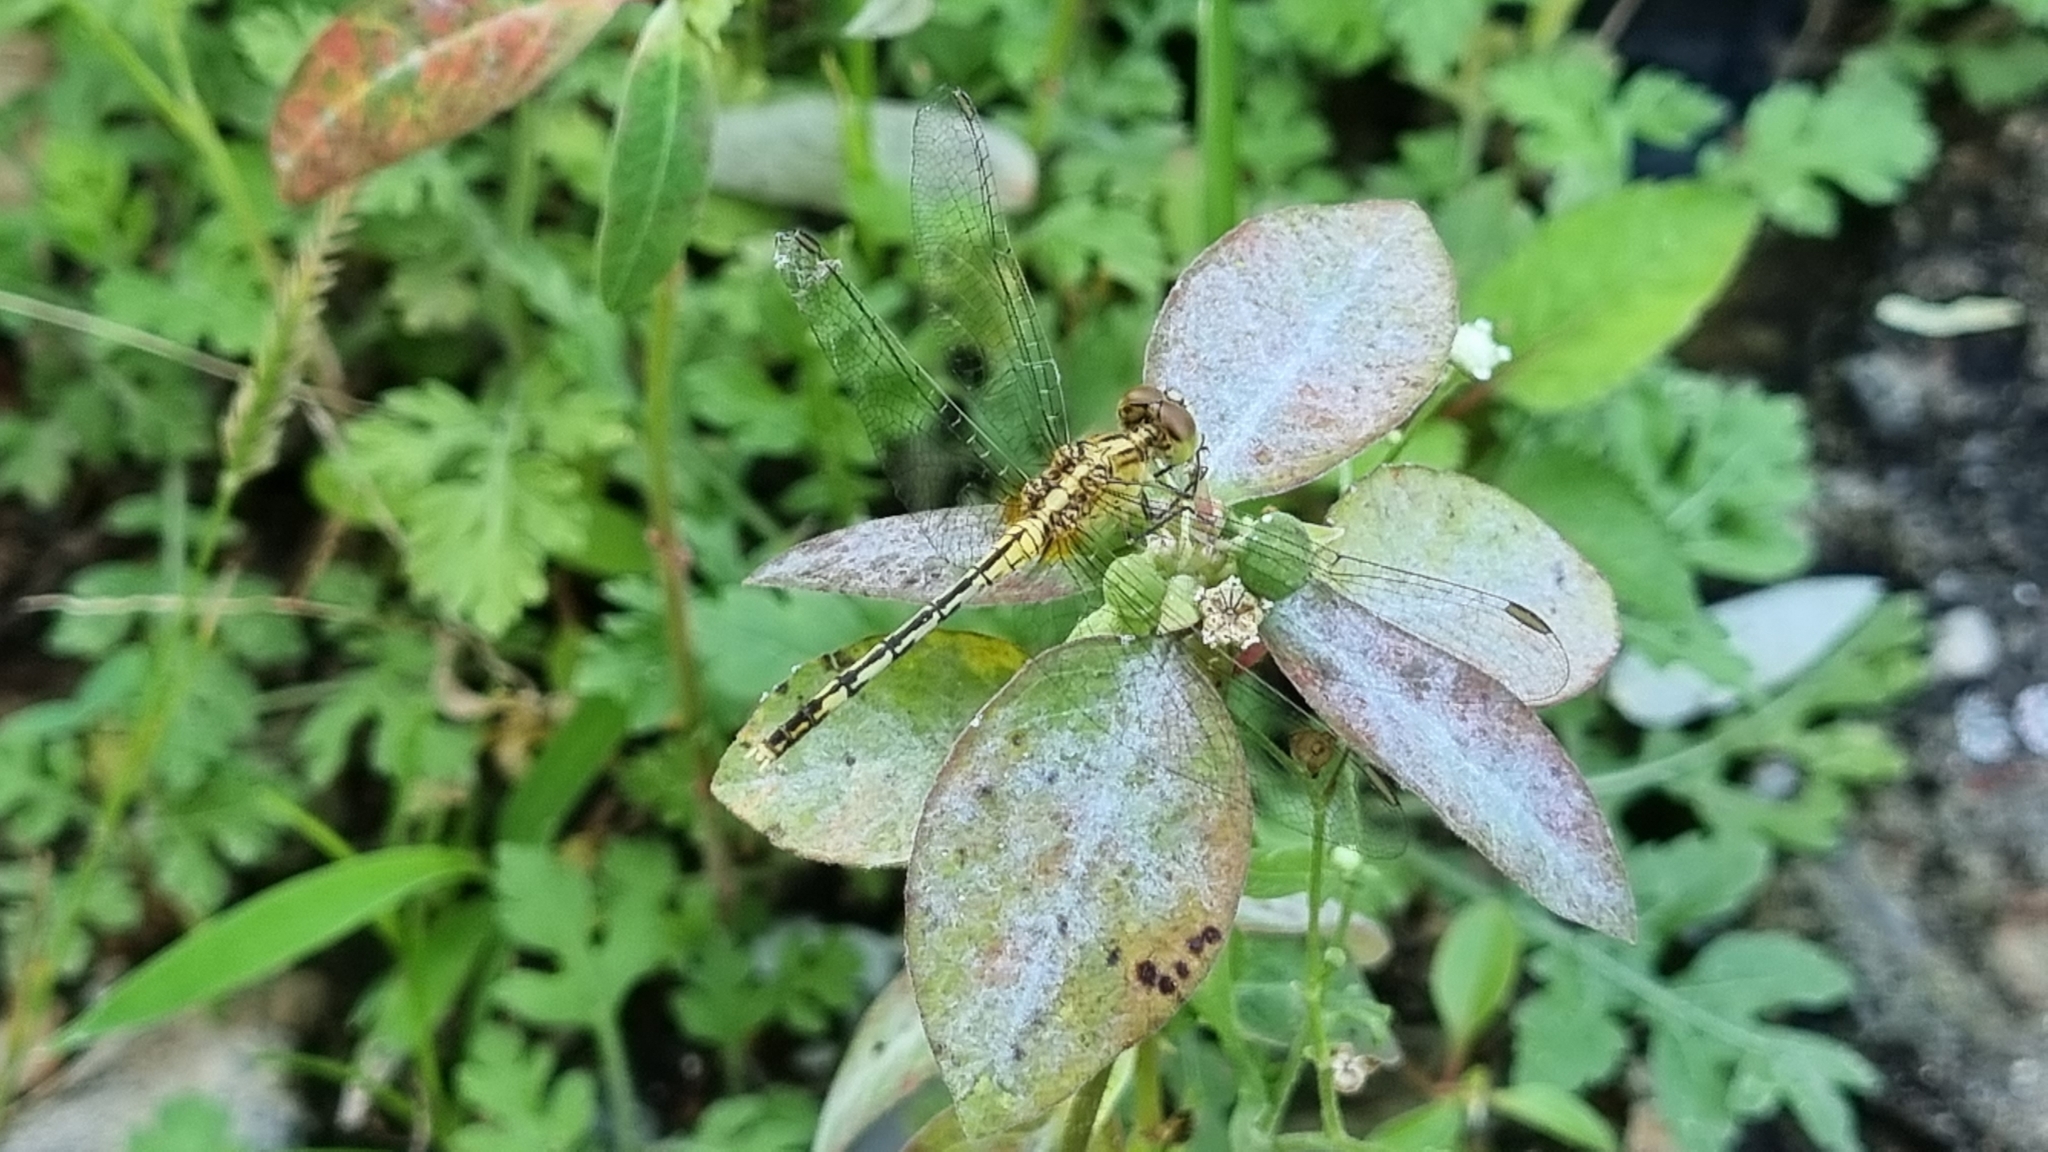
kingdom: Animalia
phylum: Arthropoda
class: Insecta
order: Odonata
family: Libellulidae
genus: Diplacodes
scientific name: Diplacodes trivialis
